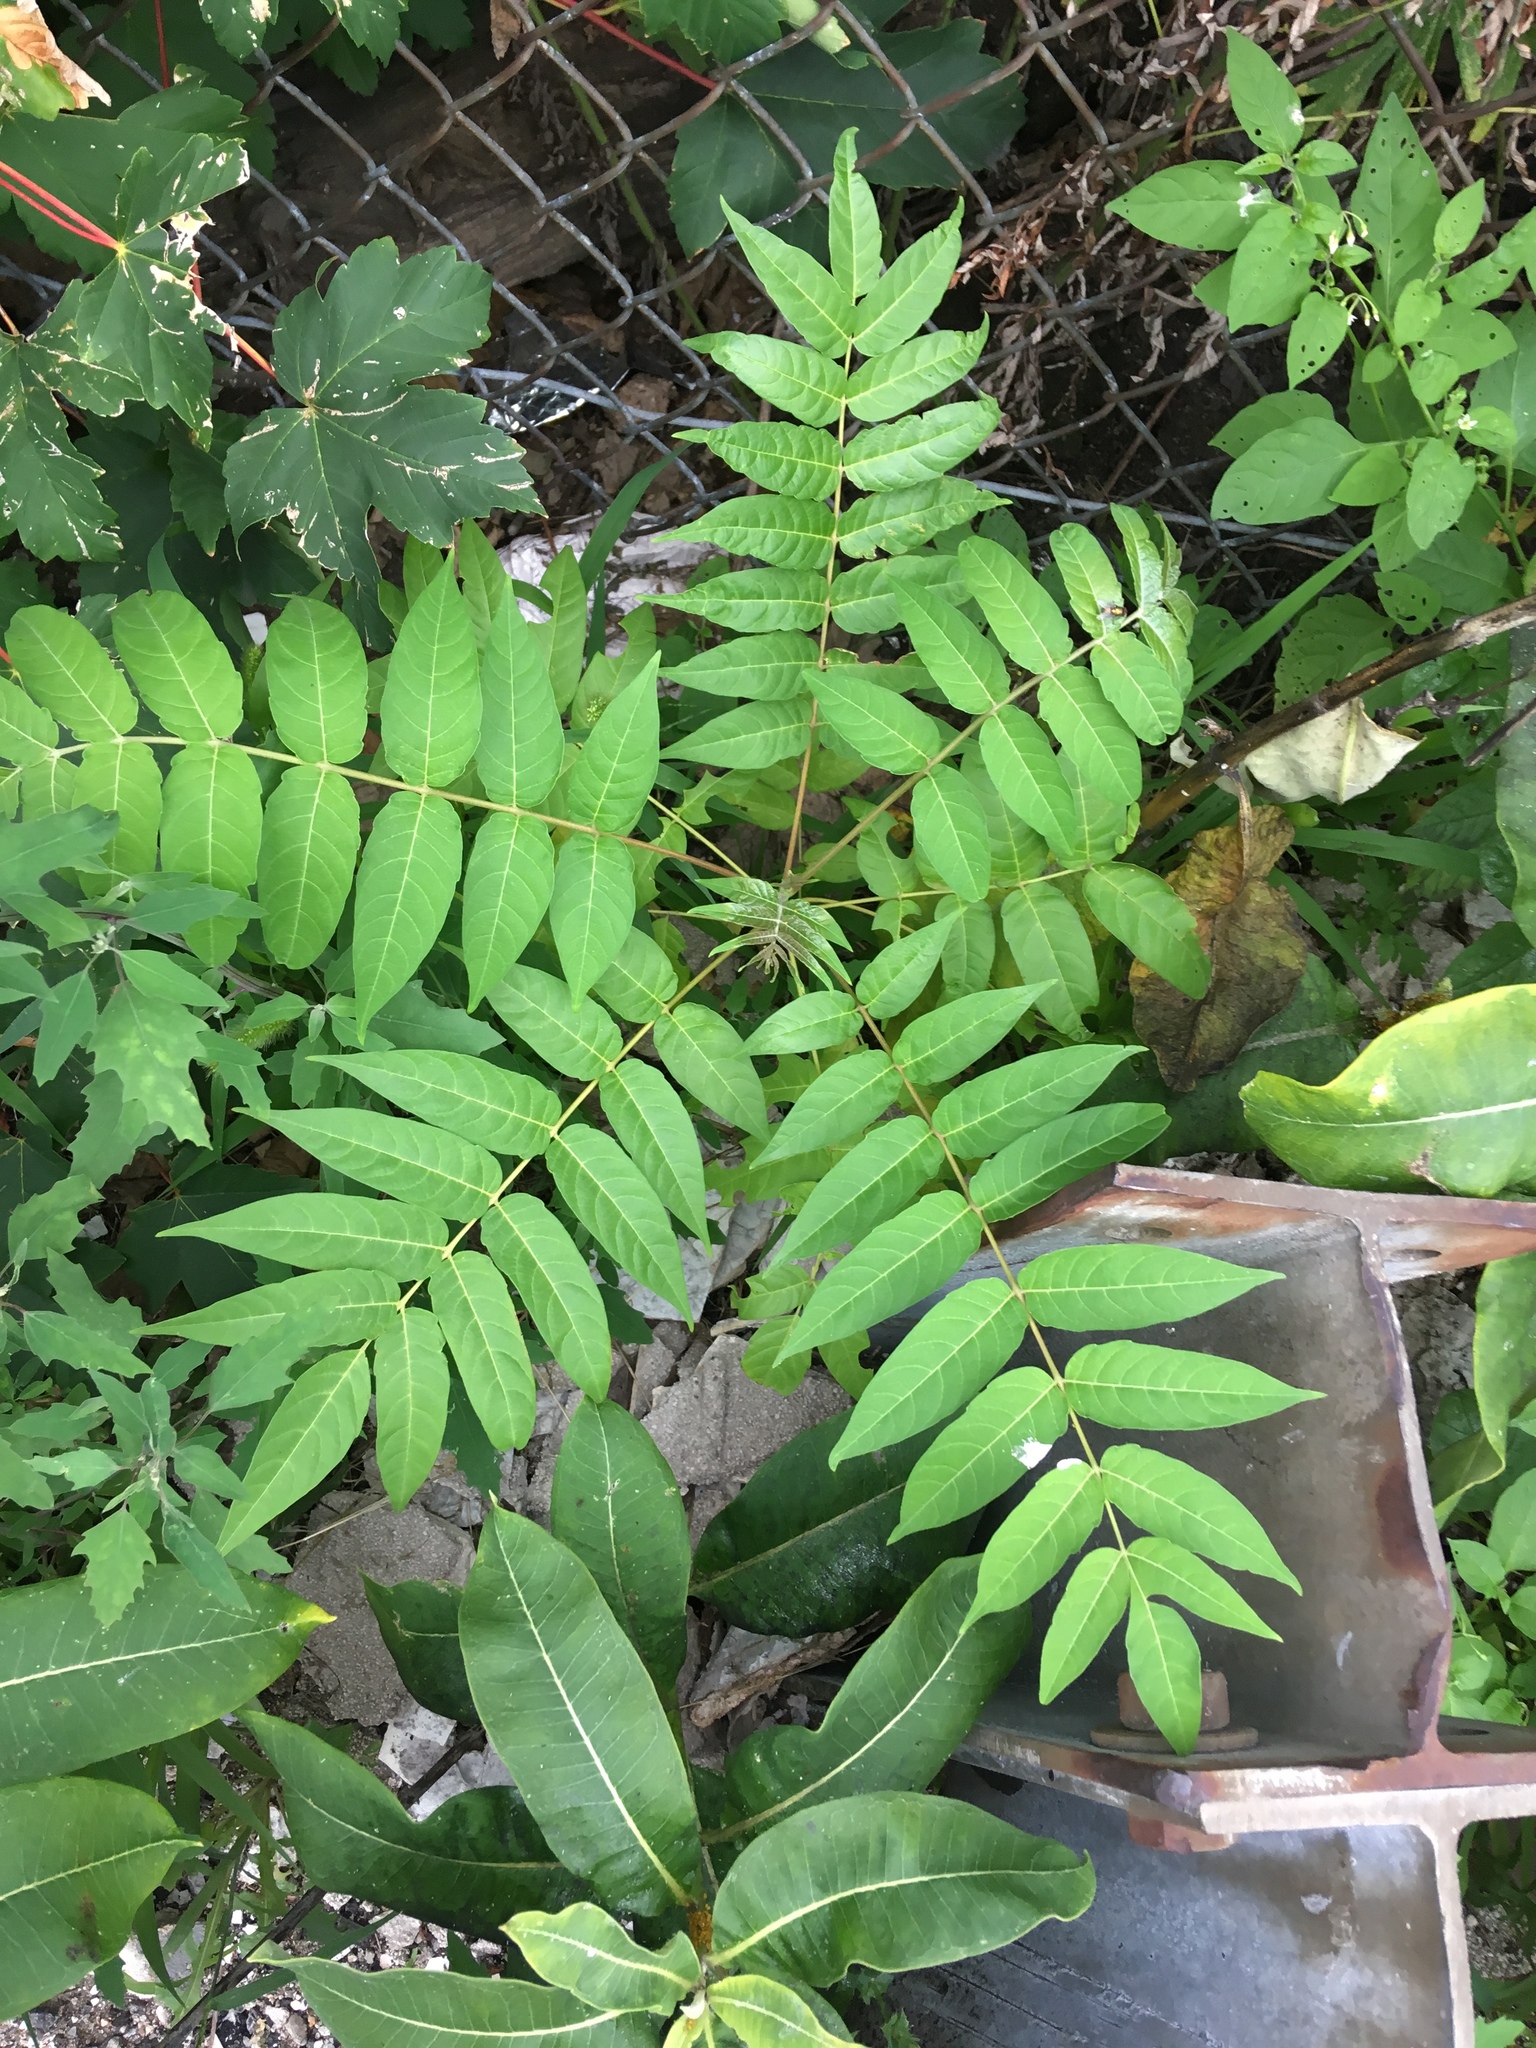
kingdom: Plantae
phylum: Tracheophyta
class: Magnoliopsida
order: Sapindales
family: Simaroubaceae
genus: Ailanthus
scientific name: Ailanthus altissima
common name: Tree-of-heaven
